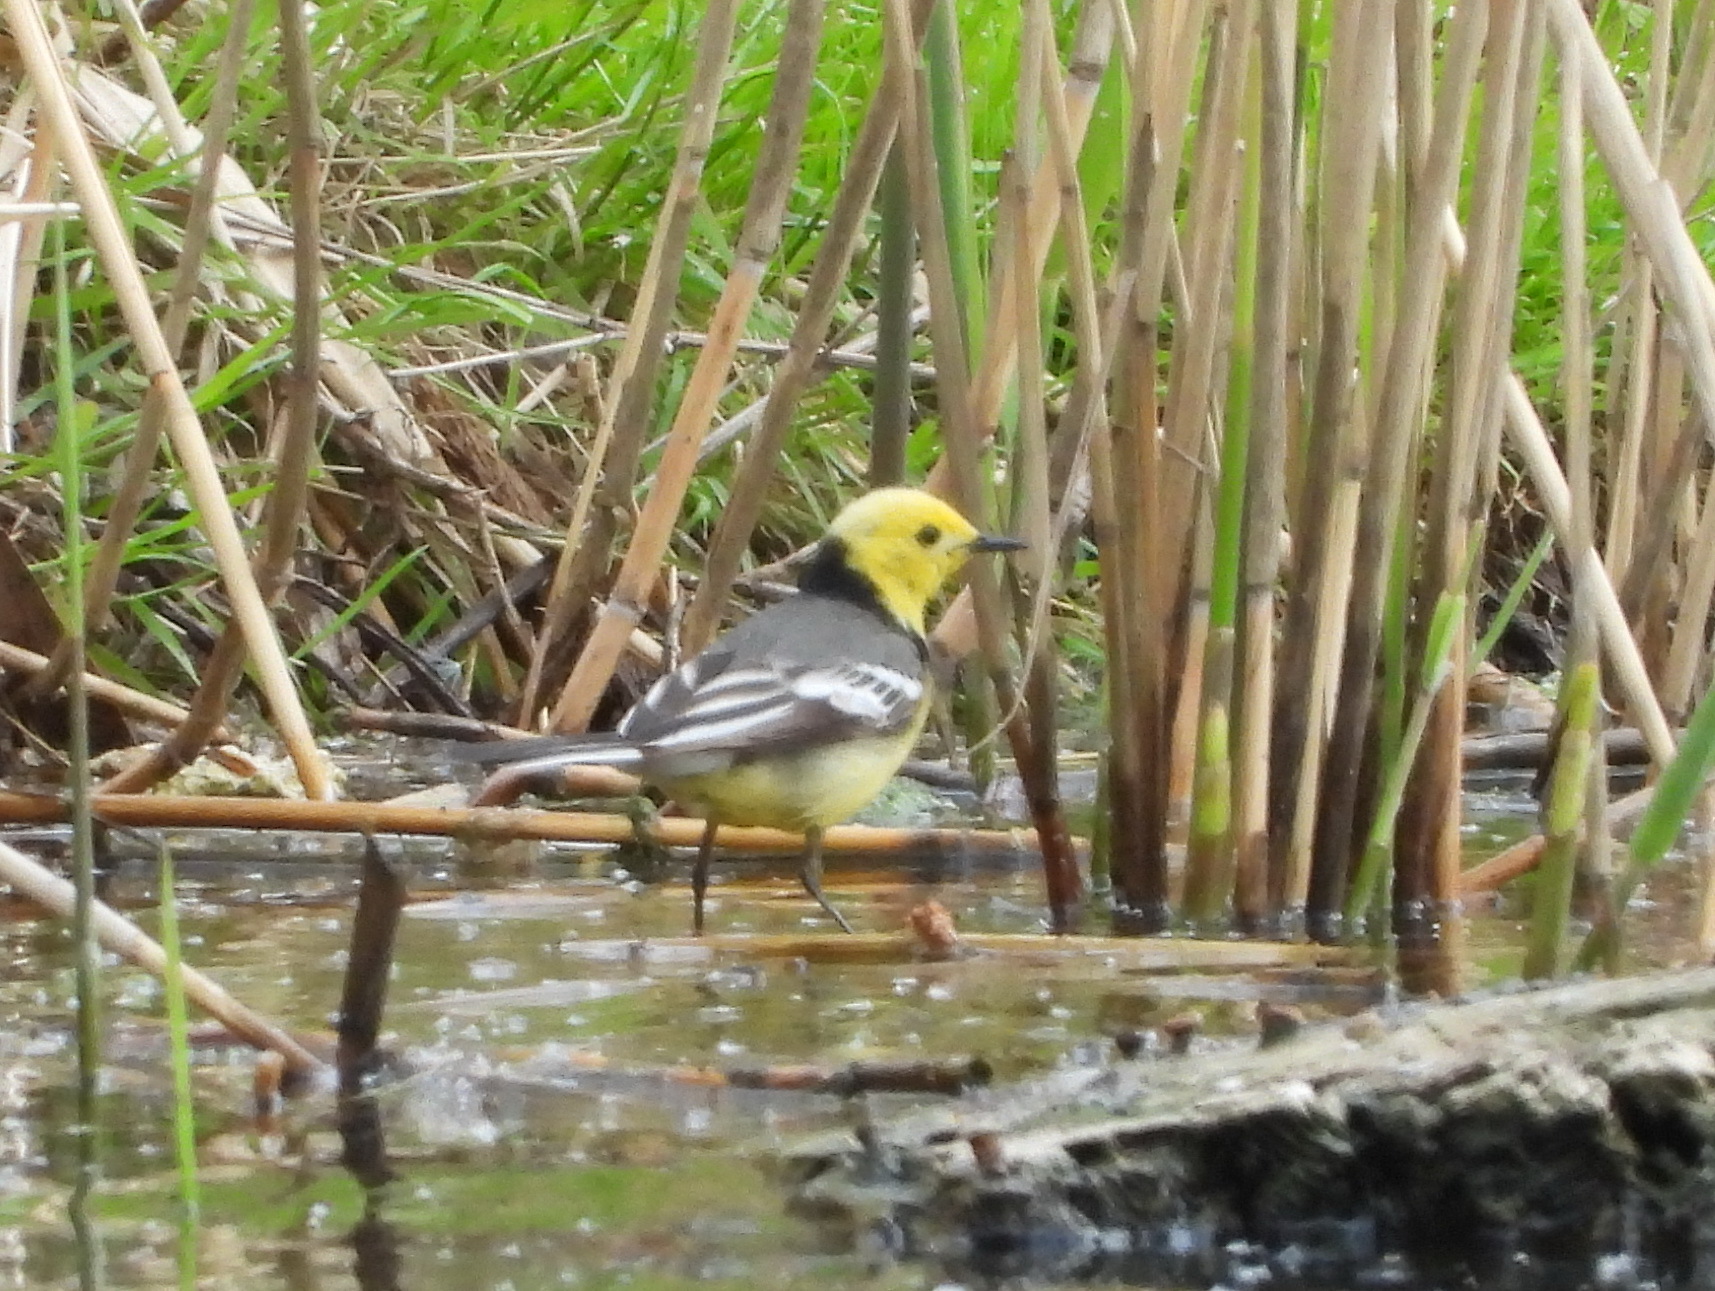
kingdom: Animalia
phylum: Chordata
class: Aves
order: Passeriformes
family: Motacillidae
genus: Motacilla
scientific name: Motacilla citreola
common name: Citrine wagtail
